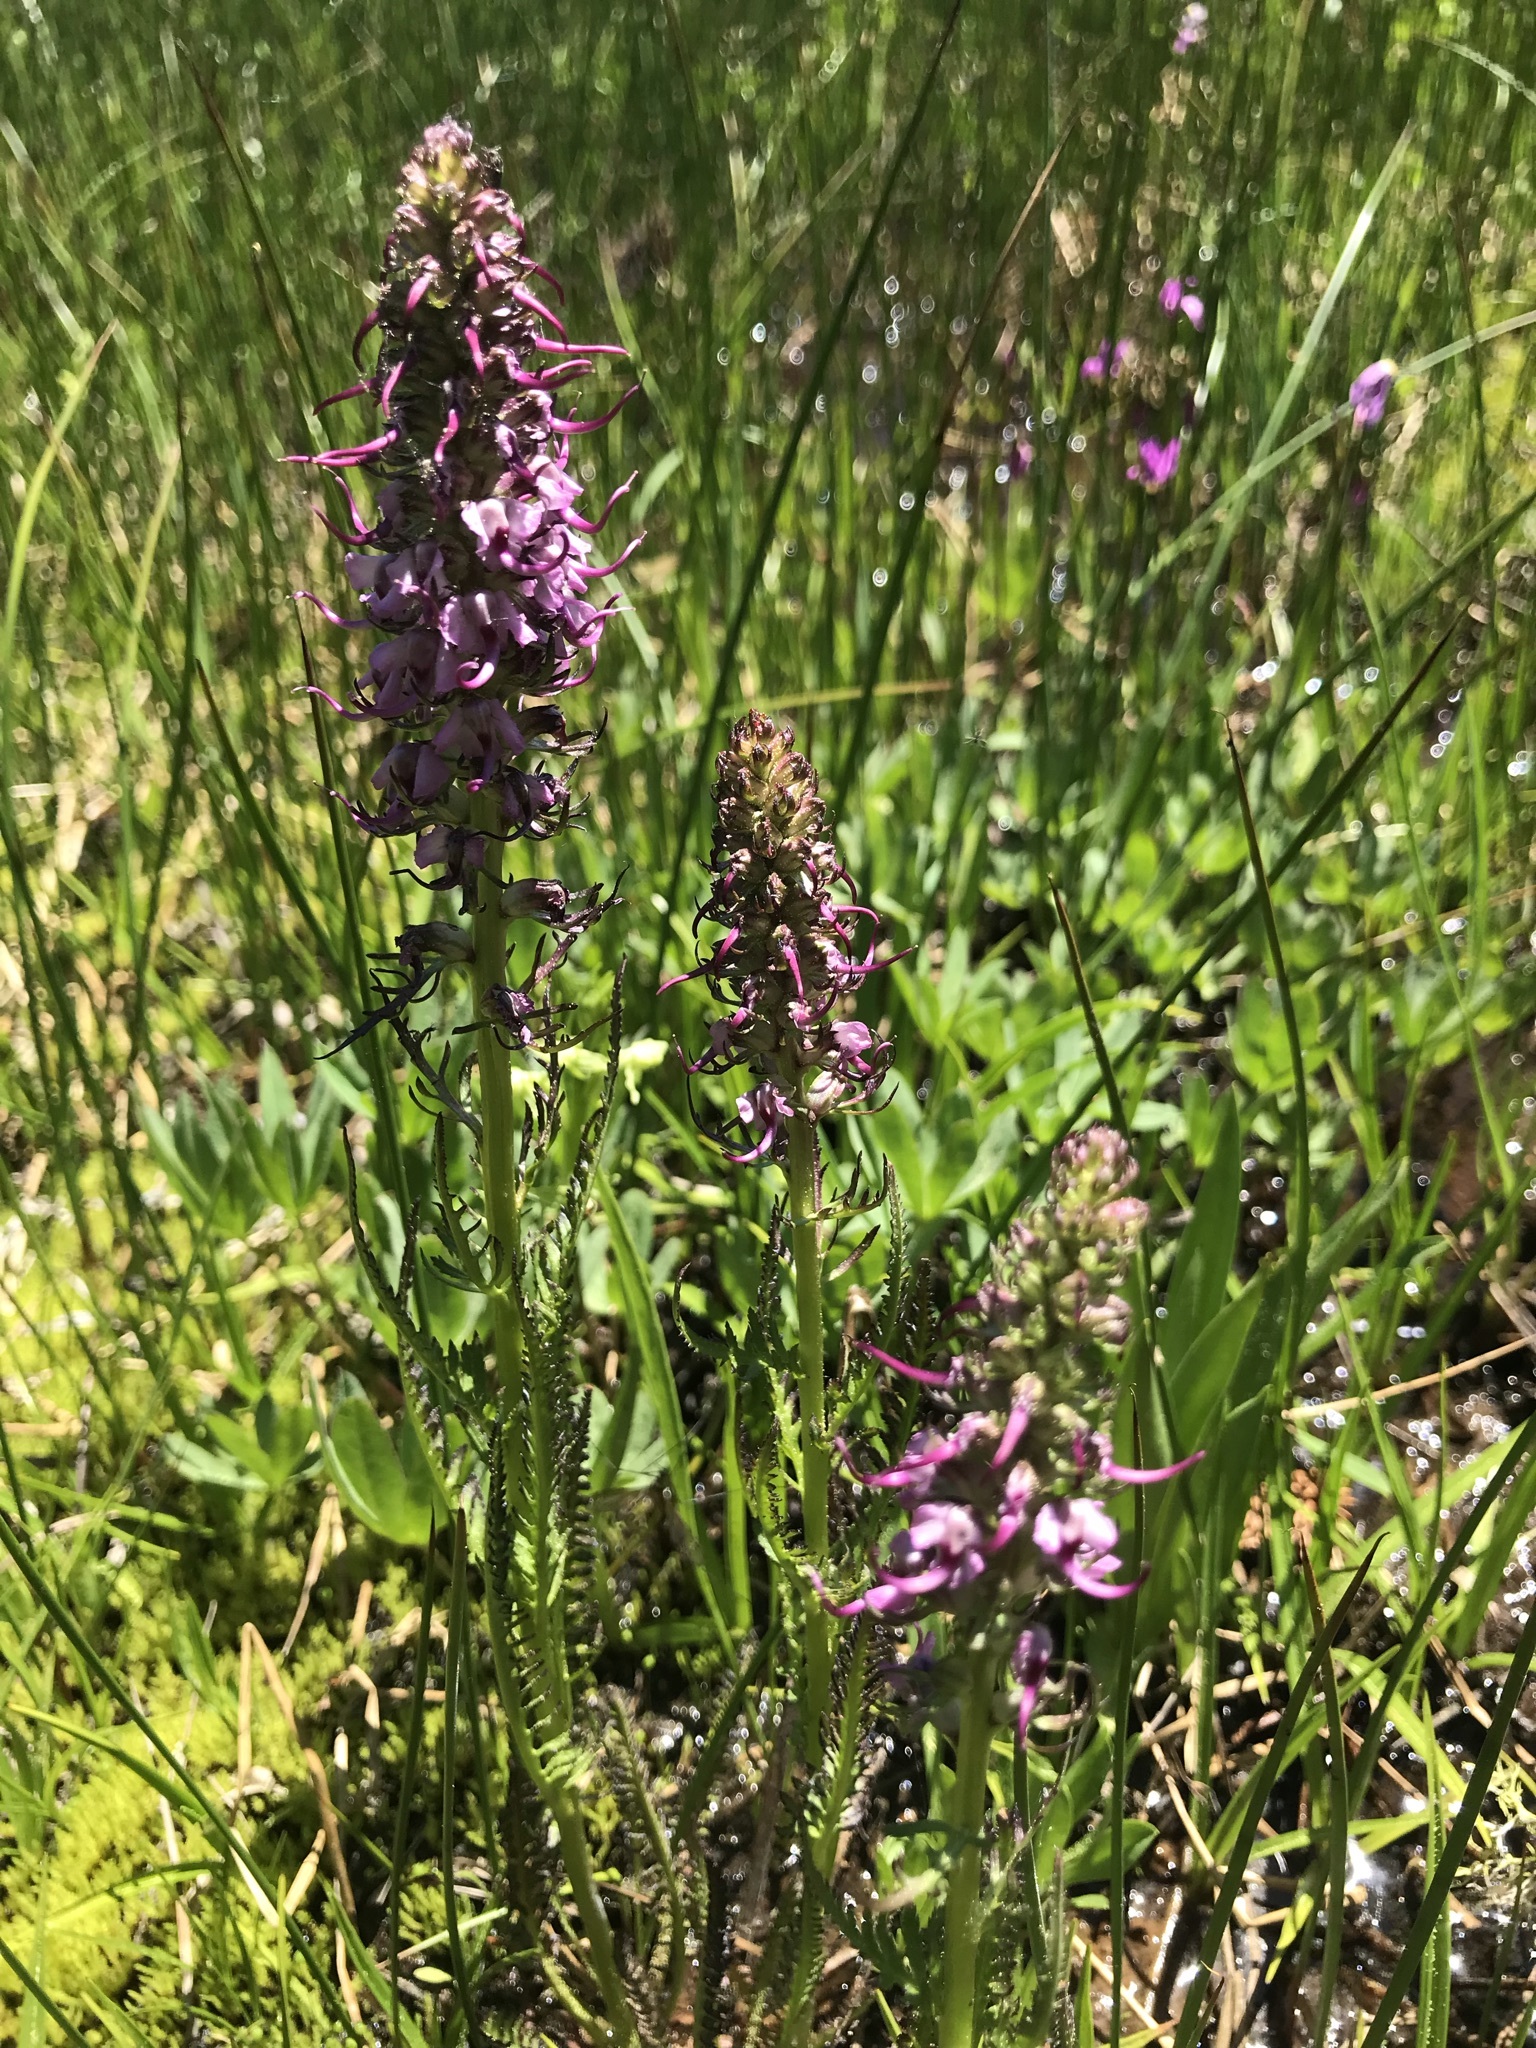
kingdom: Plantae
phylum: Tracheophyta
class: Magnoliopsida
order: Lamiales
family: Orobanchaceae
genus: Pedicularis
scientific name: Pedicularis groenlandica
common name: Elephant's-head
